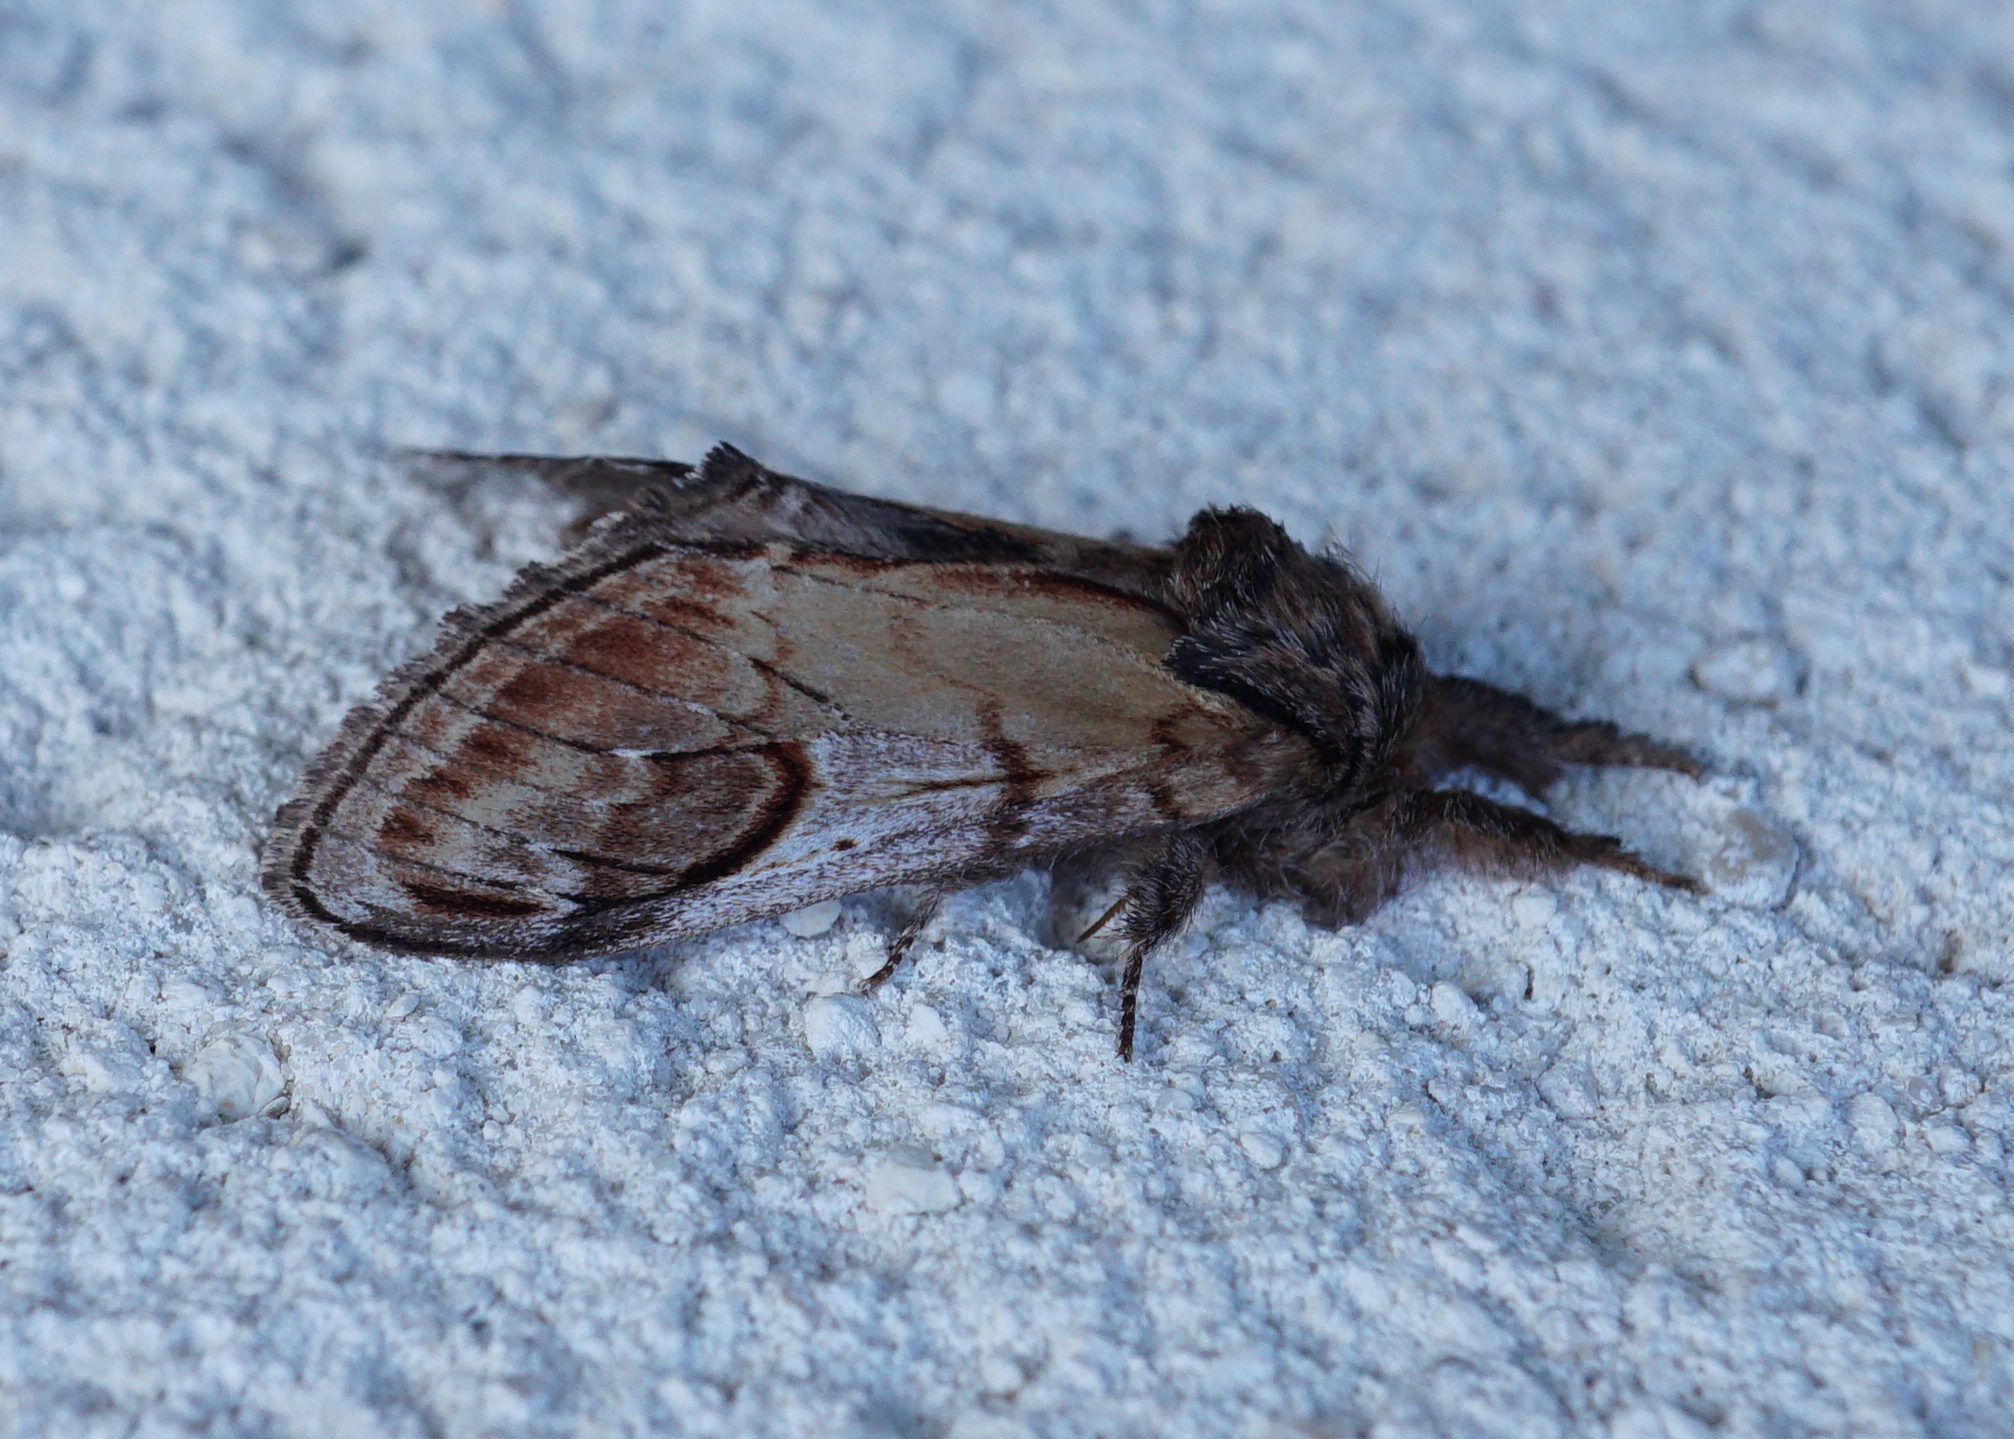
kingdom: Animalia
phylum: Arthropoda
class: Insecta
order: Lepidoptera
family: Notodontidae
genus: Notodonta
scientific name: Notodonta ziczac
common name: Pebble prominent
